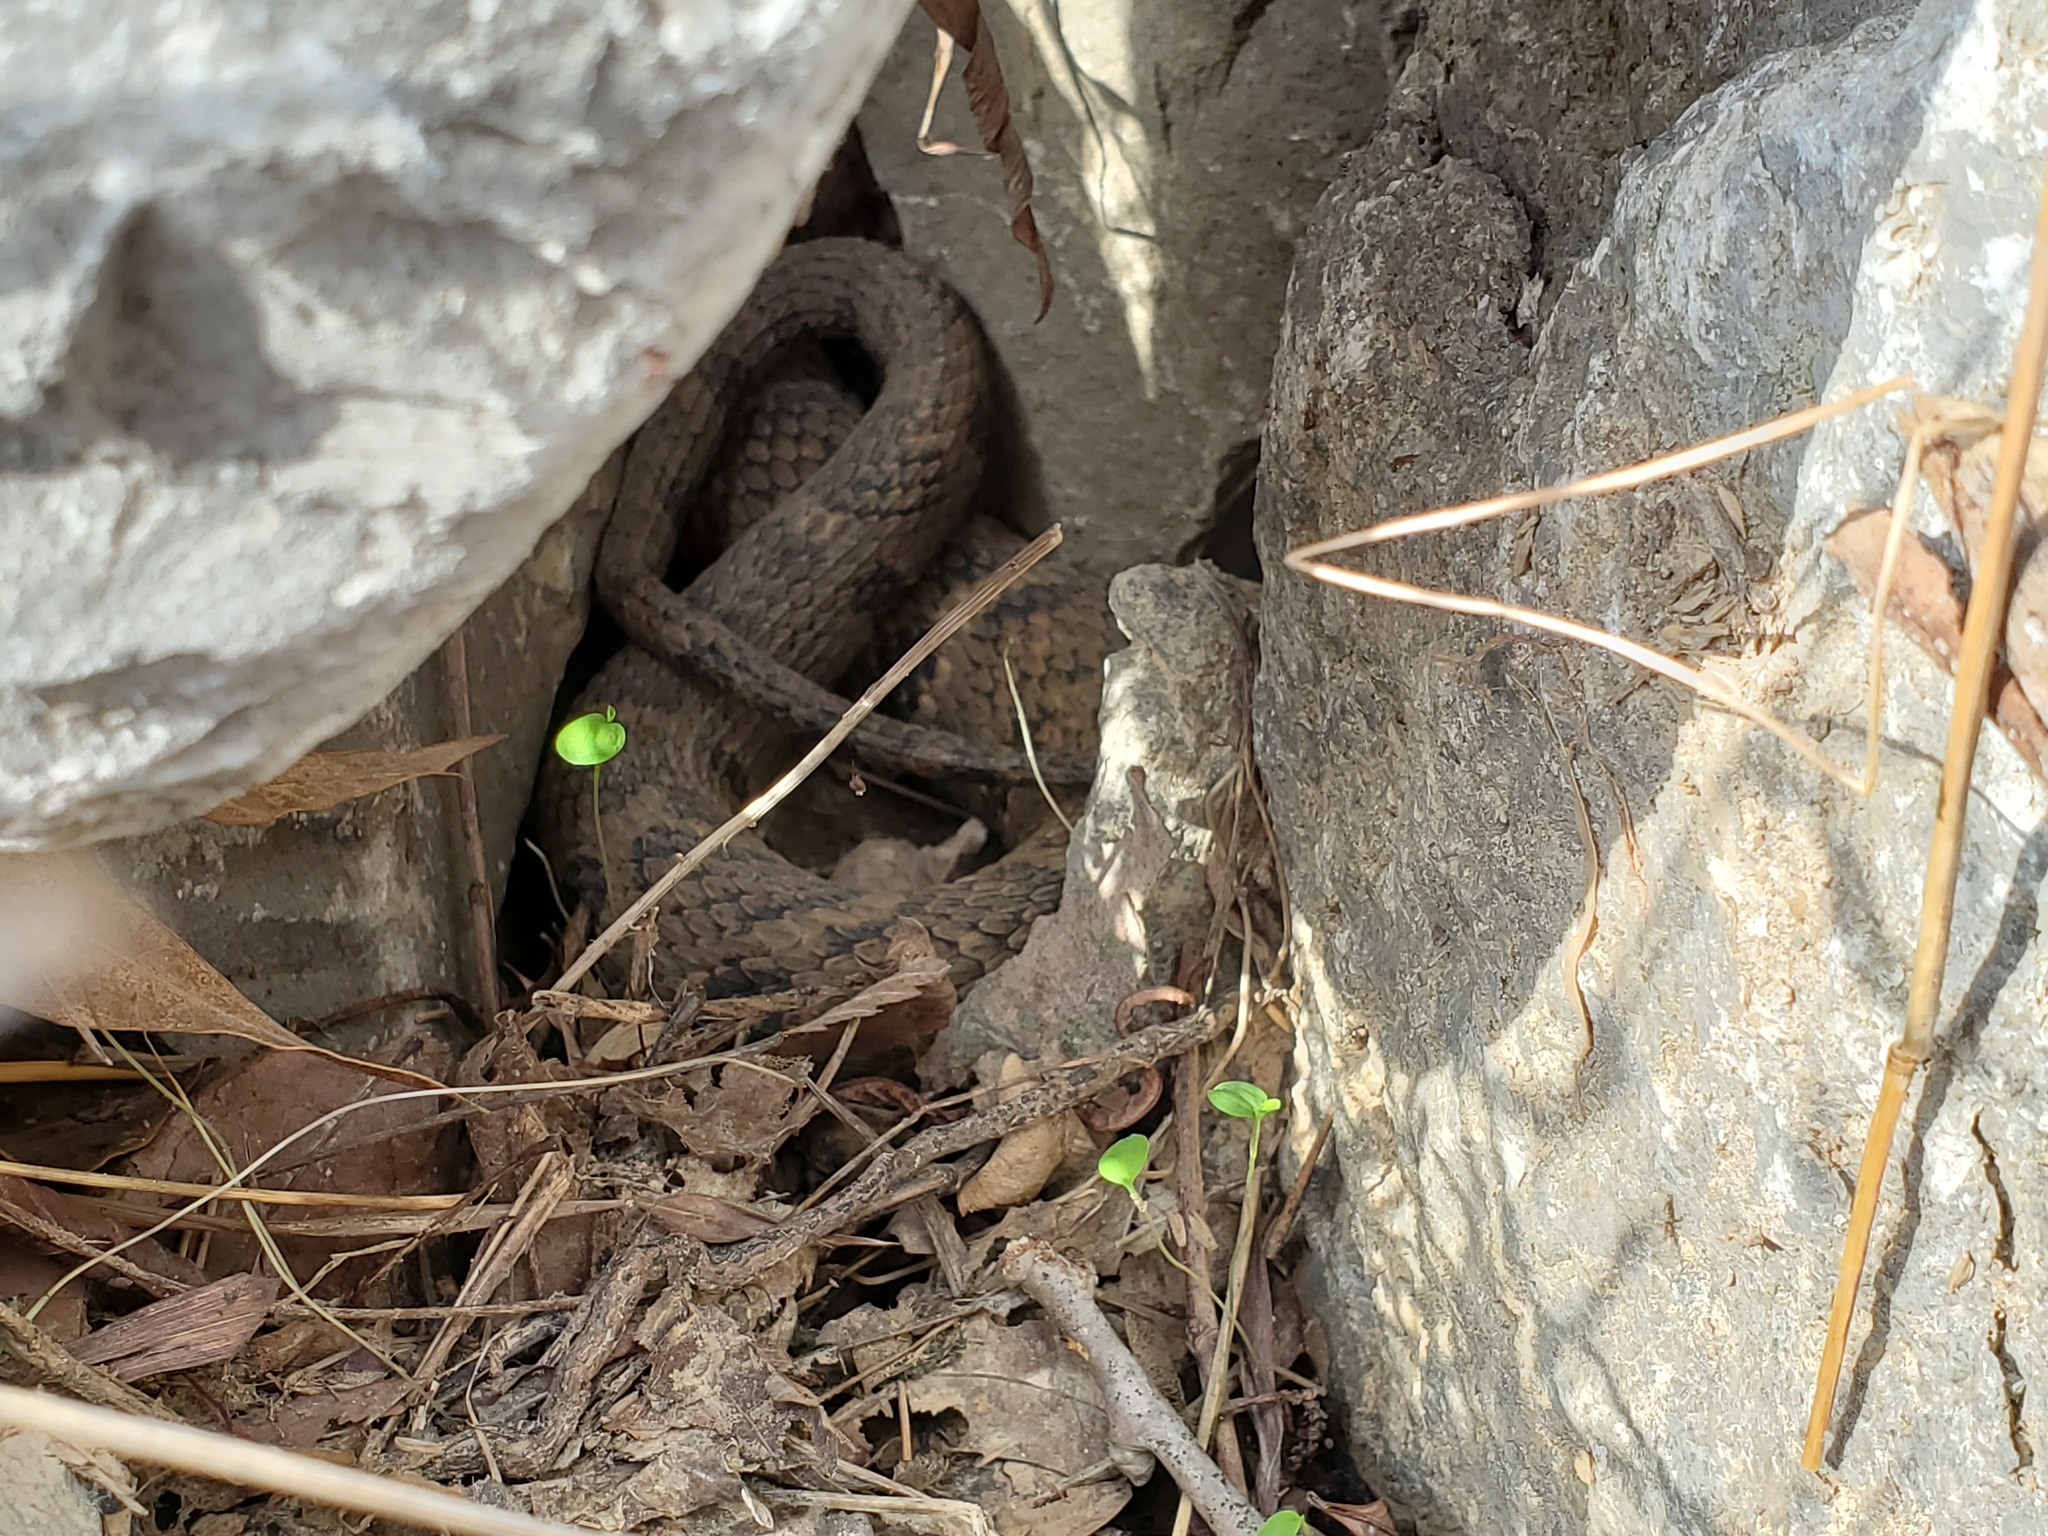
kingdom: Animalia
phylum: Chordata
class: Squamata
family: Colubridae
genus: Nerodia
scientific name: Nerodia sipedon
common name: Northern water snake
